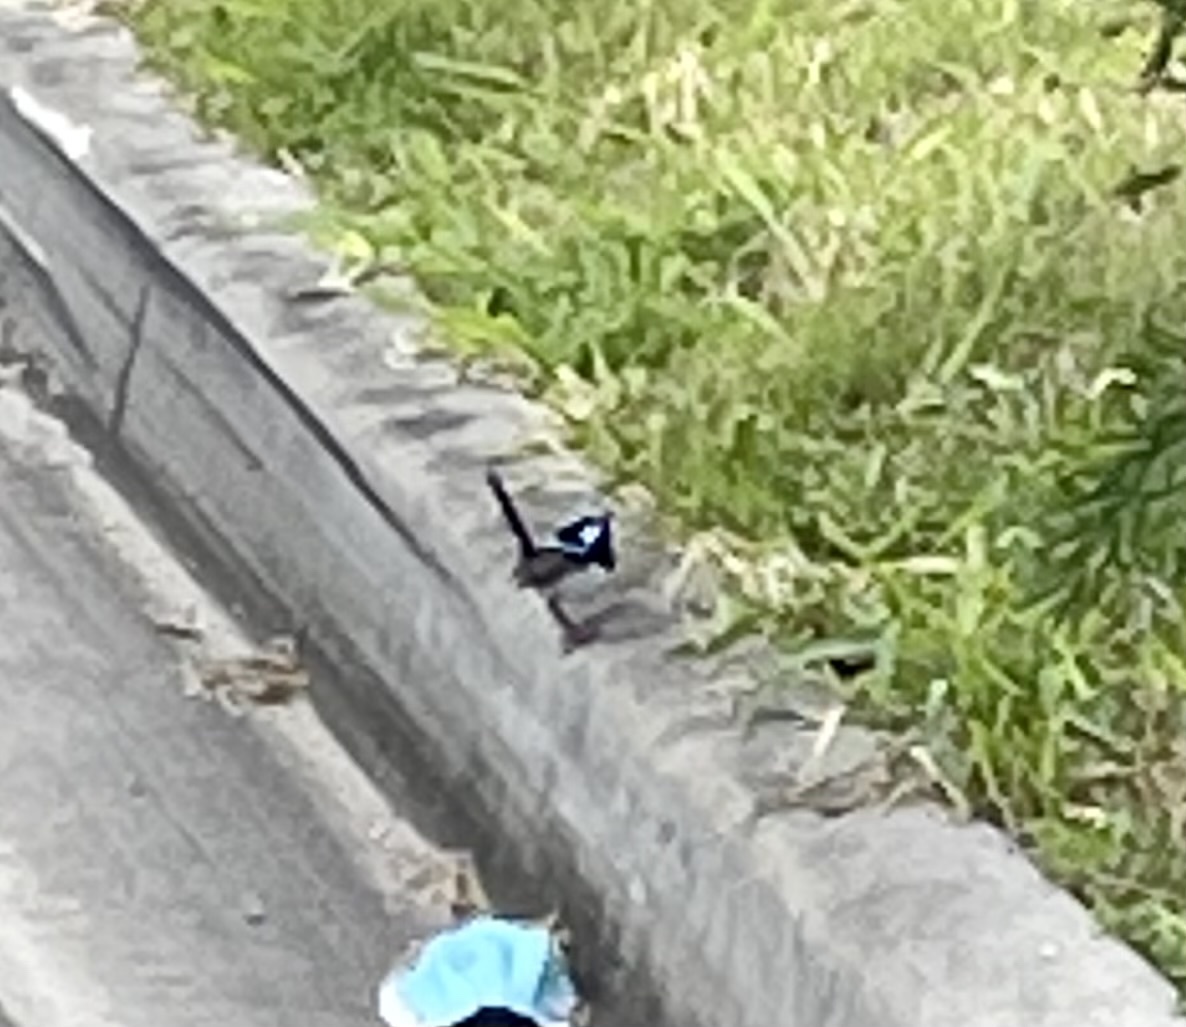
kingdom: Animalia
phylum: Chordata
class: Aves
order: Passeriformes
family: Maluridae
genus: Malurus
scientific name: Malurus cyaneus
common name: Superb fairywren
